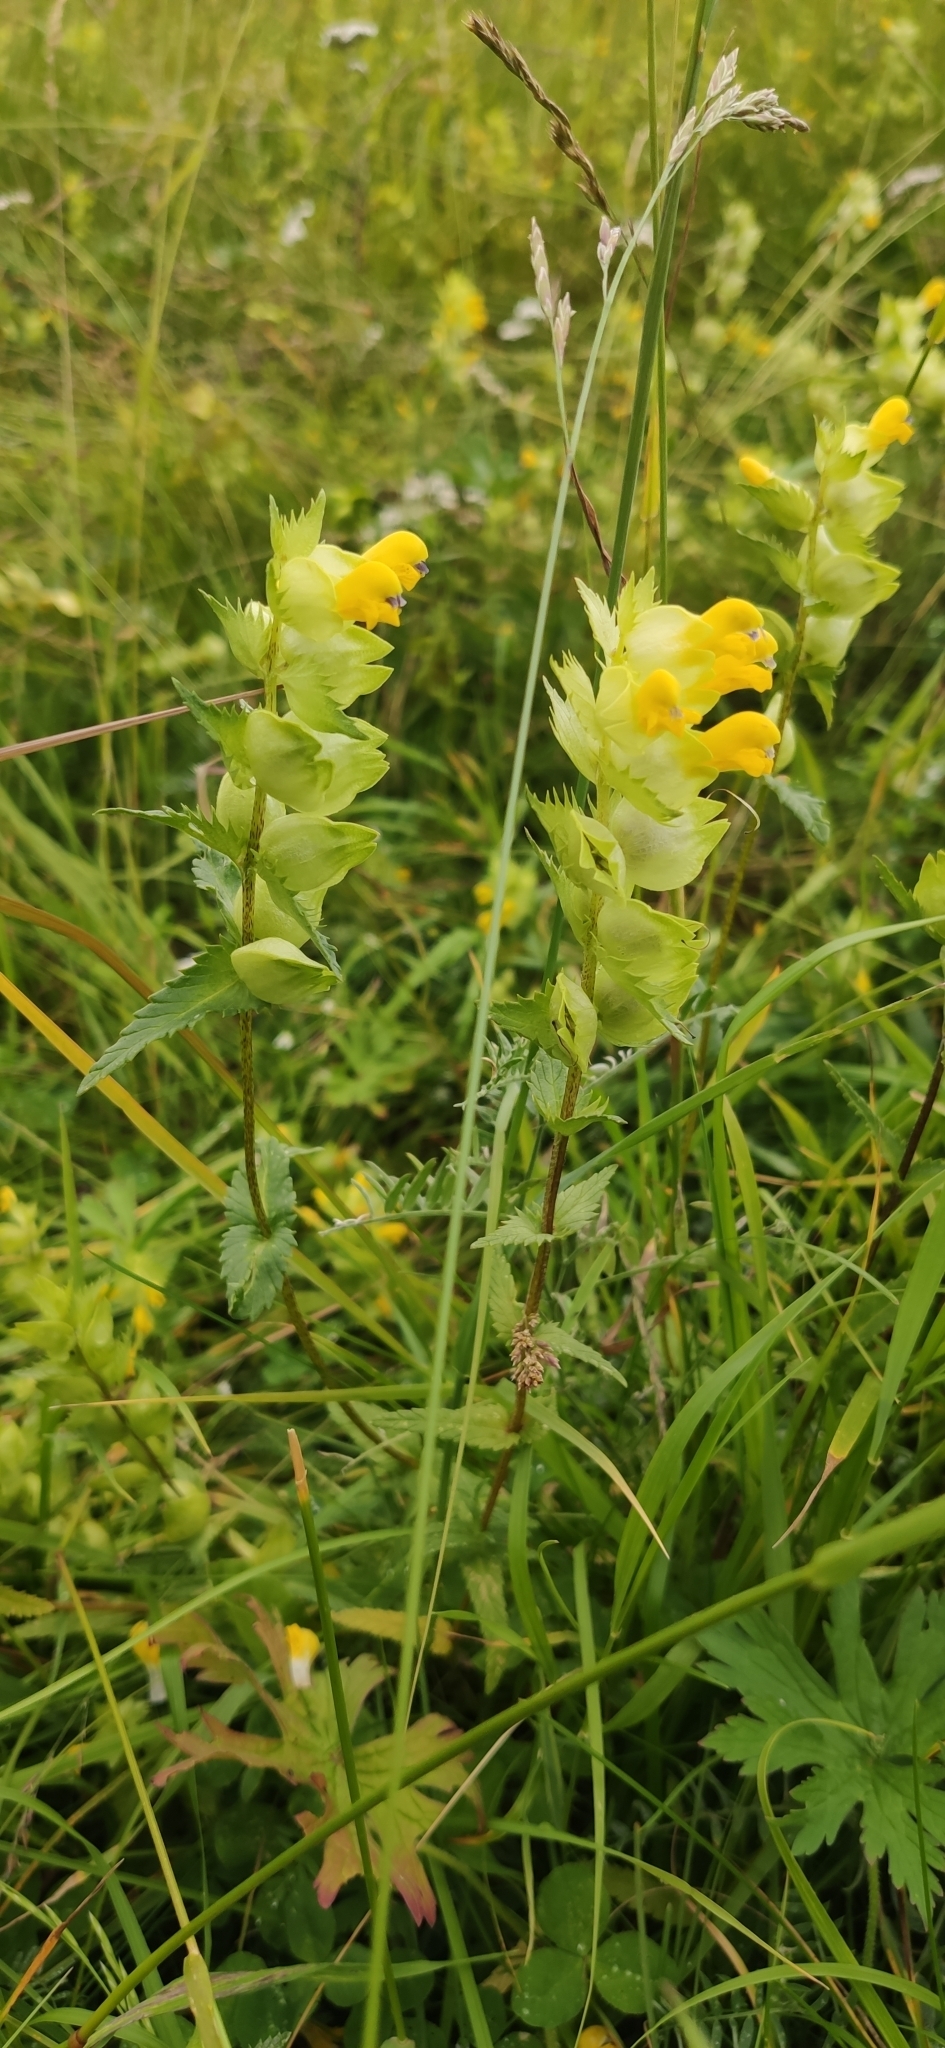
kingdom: Plantae
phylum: Tracheophyta
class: Magnoliopsida
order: Lamiales
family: Orobanchaceae
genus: Rhinanthus
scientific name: Rhinanthus serotinus
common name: Late-flowering yellow rattle
